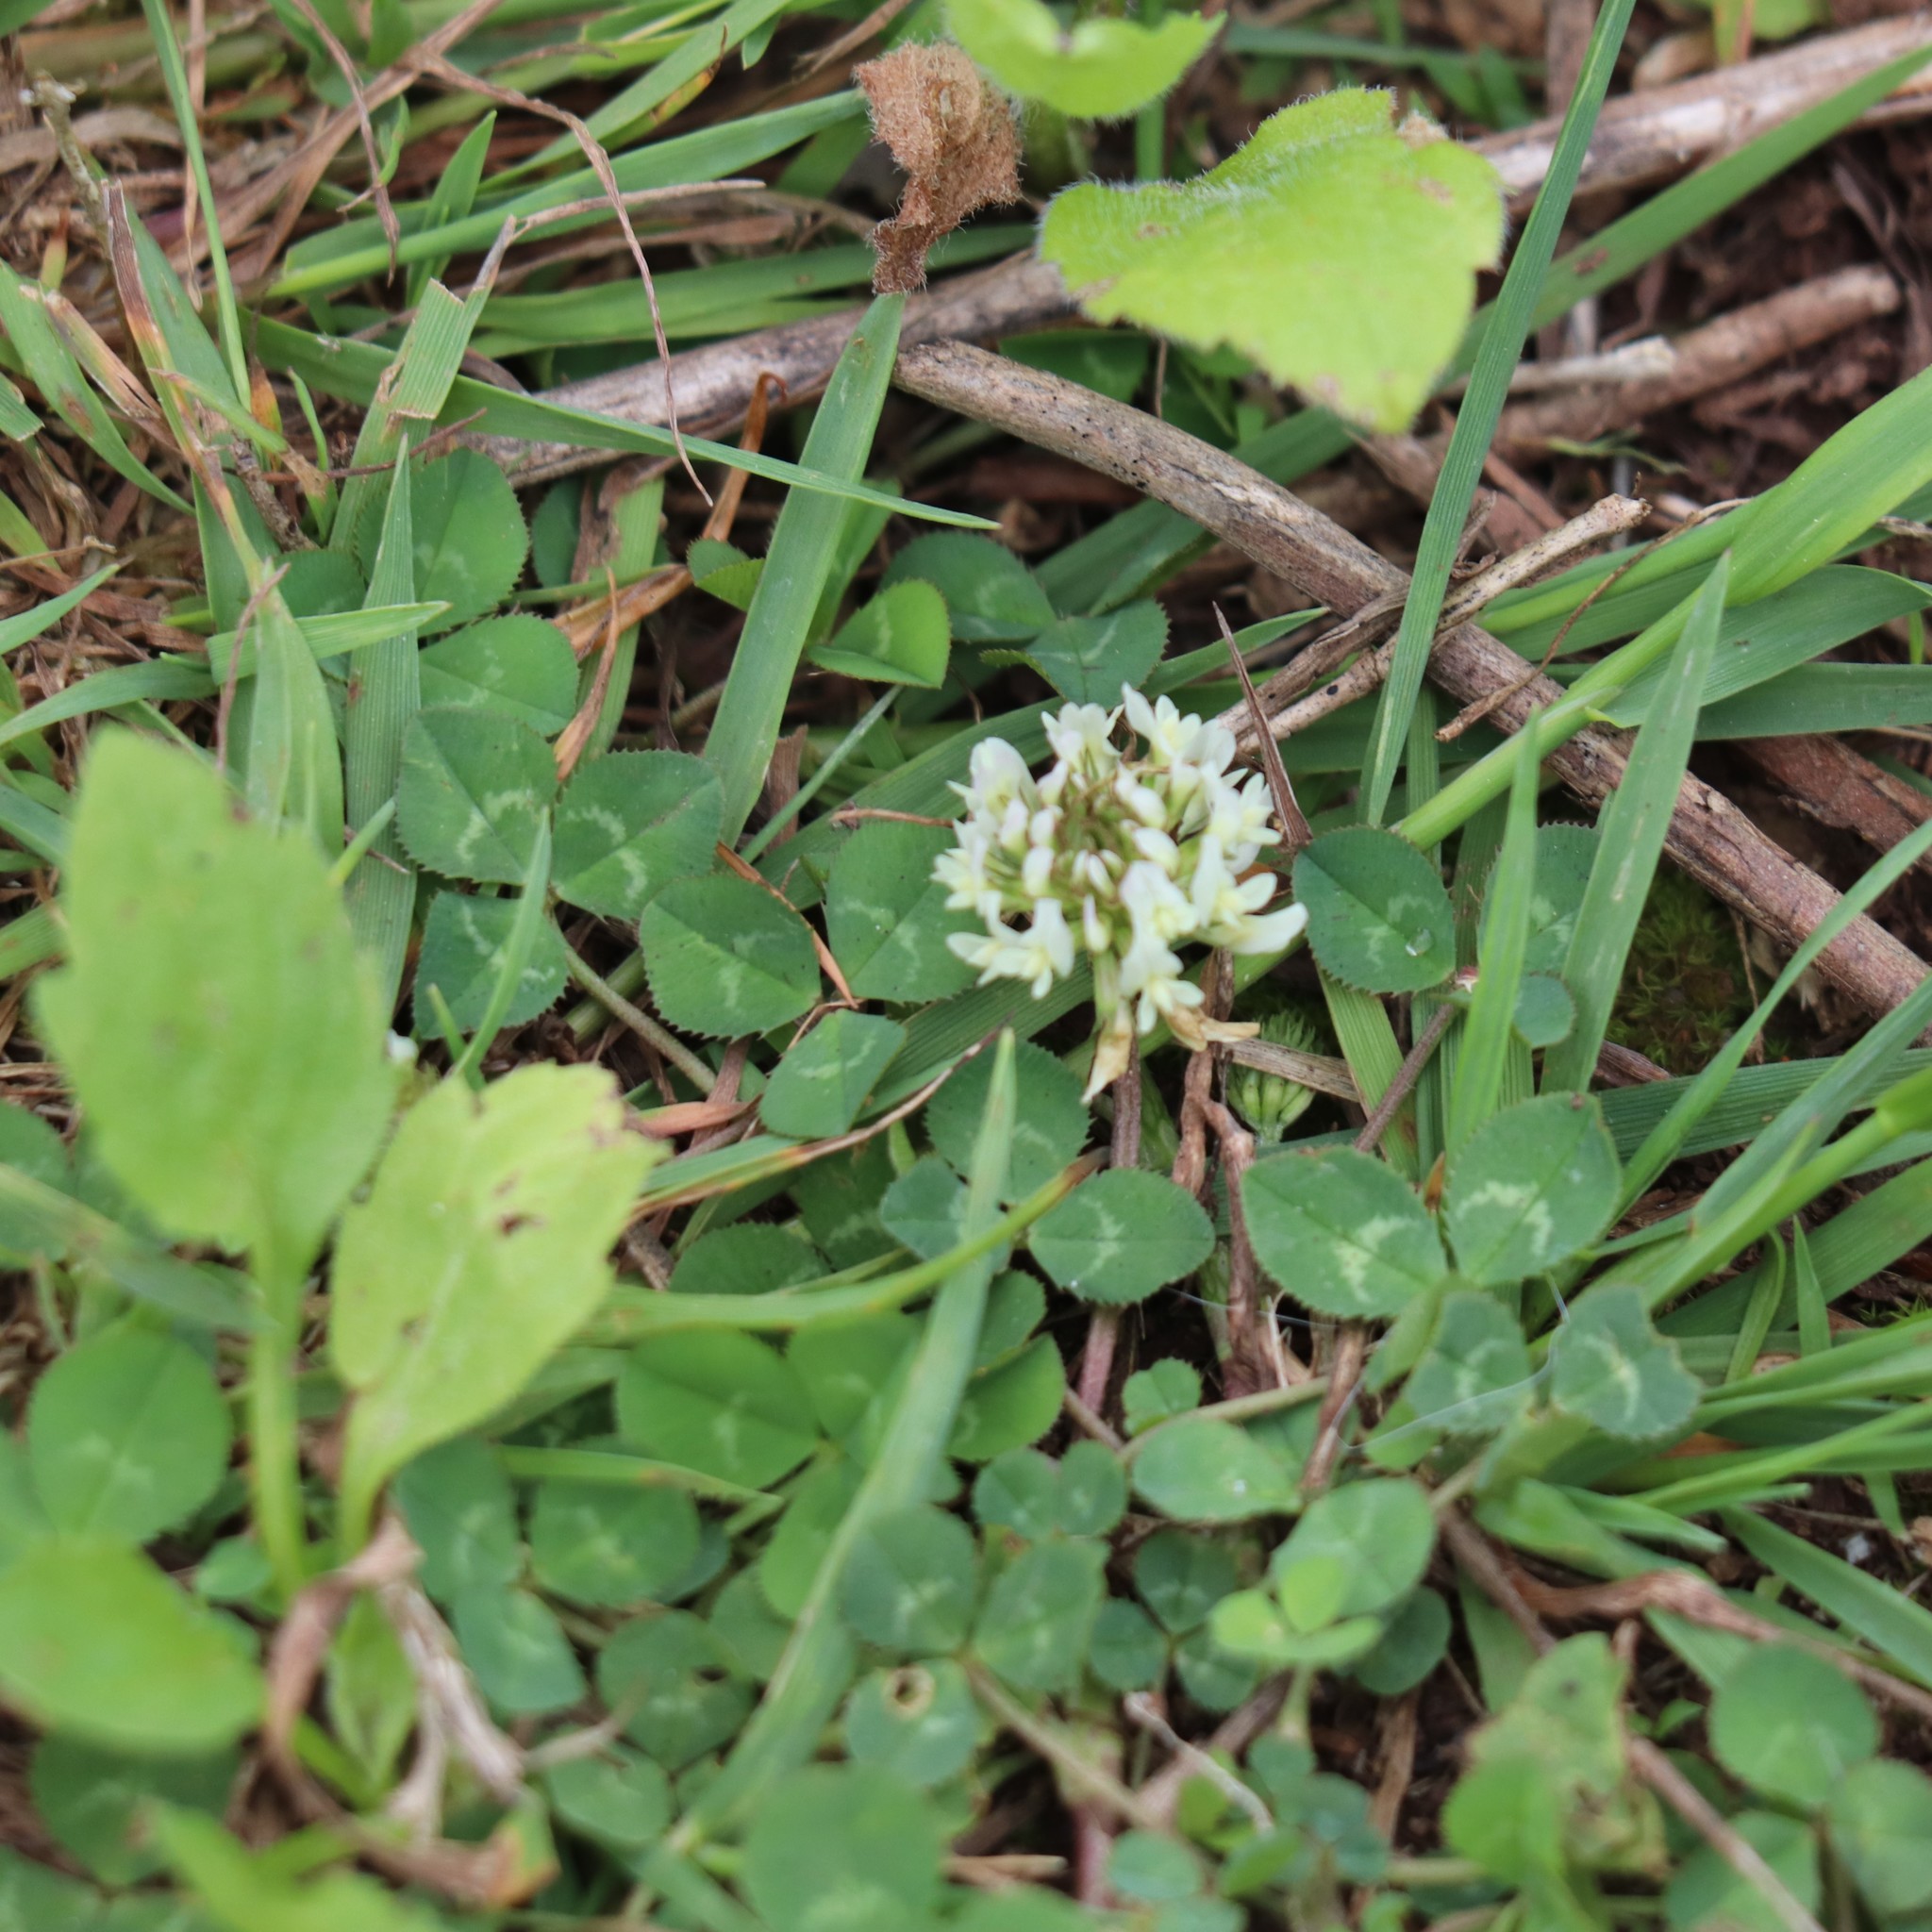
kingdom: Plantae
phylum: Tracheophyta
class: Magnoliopsida
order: Fabales
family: Fabaceae
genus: Trifolium
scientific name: Trifolium repens
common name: White clover
